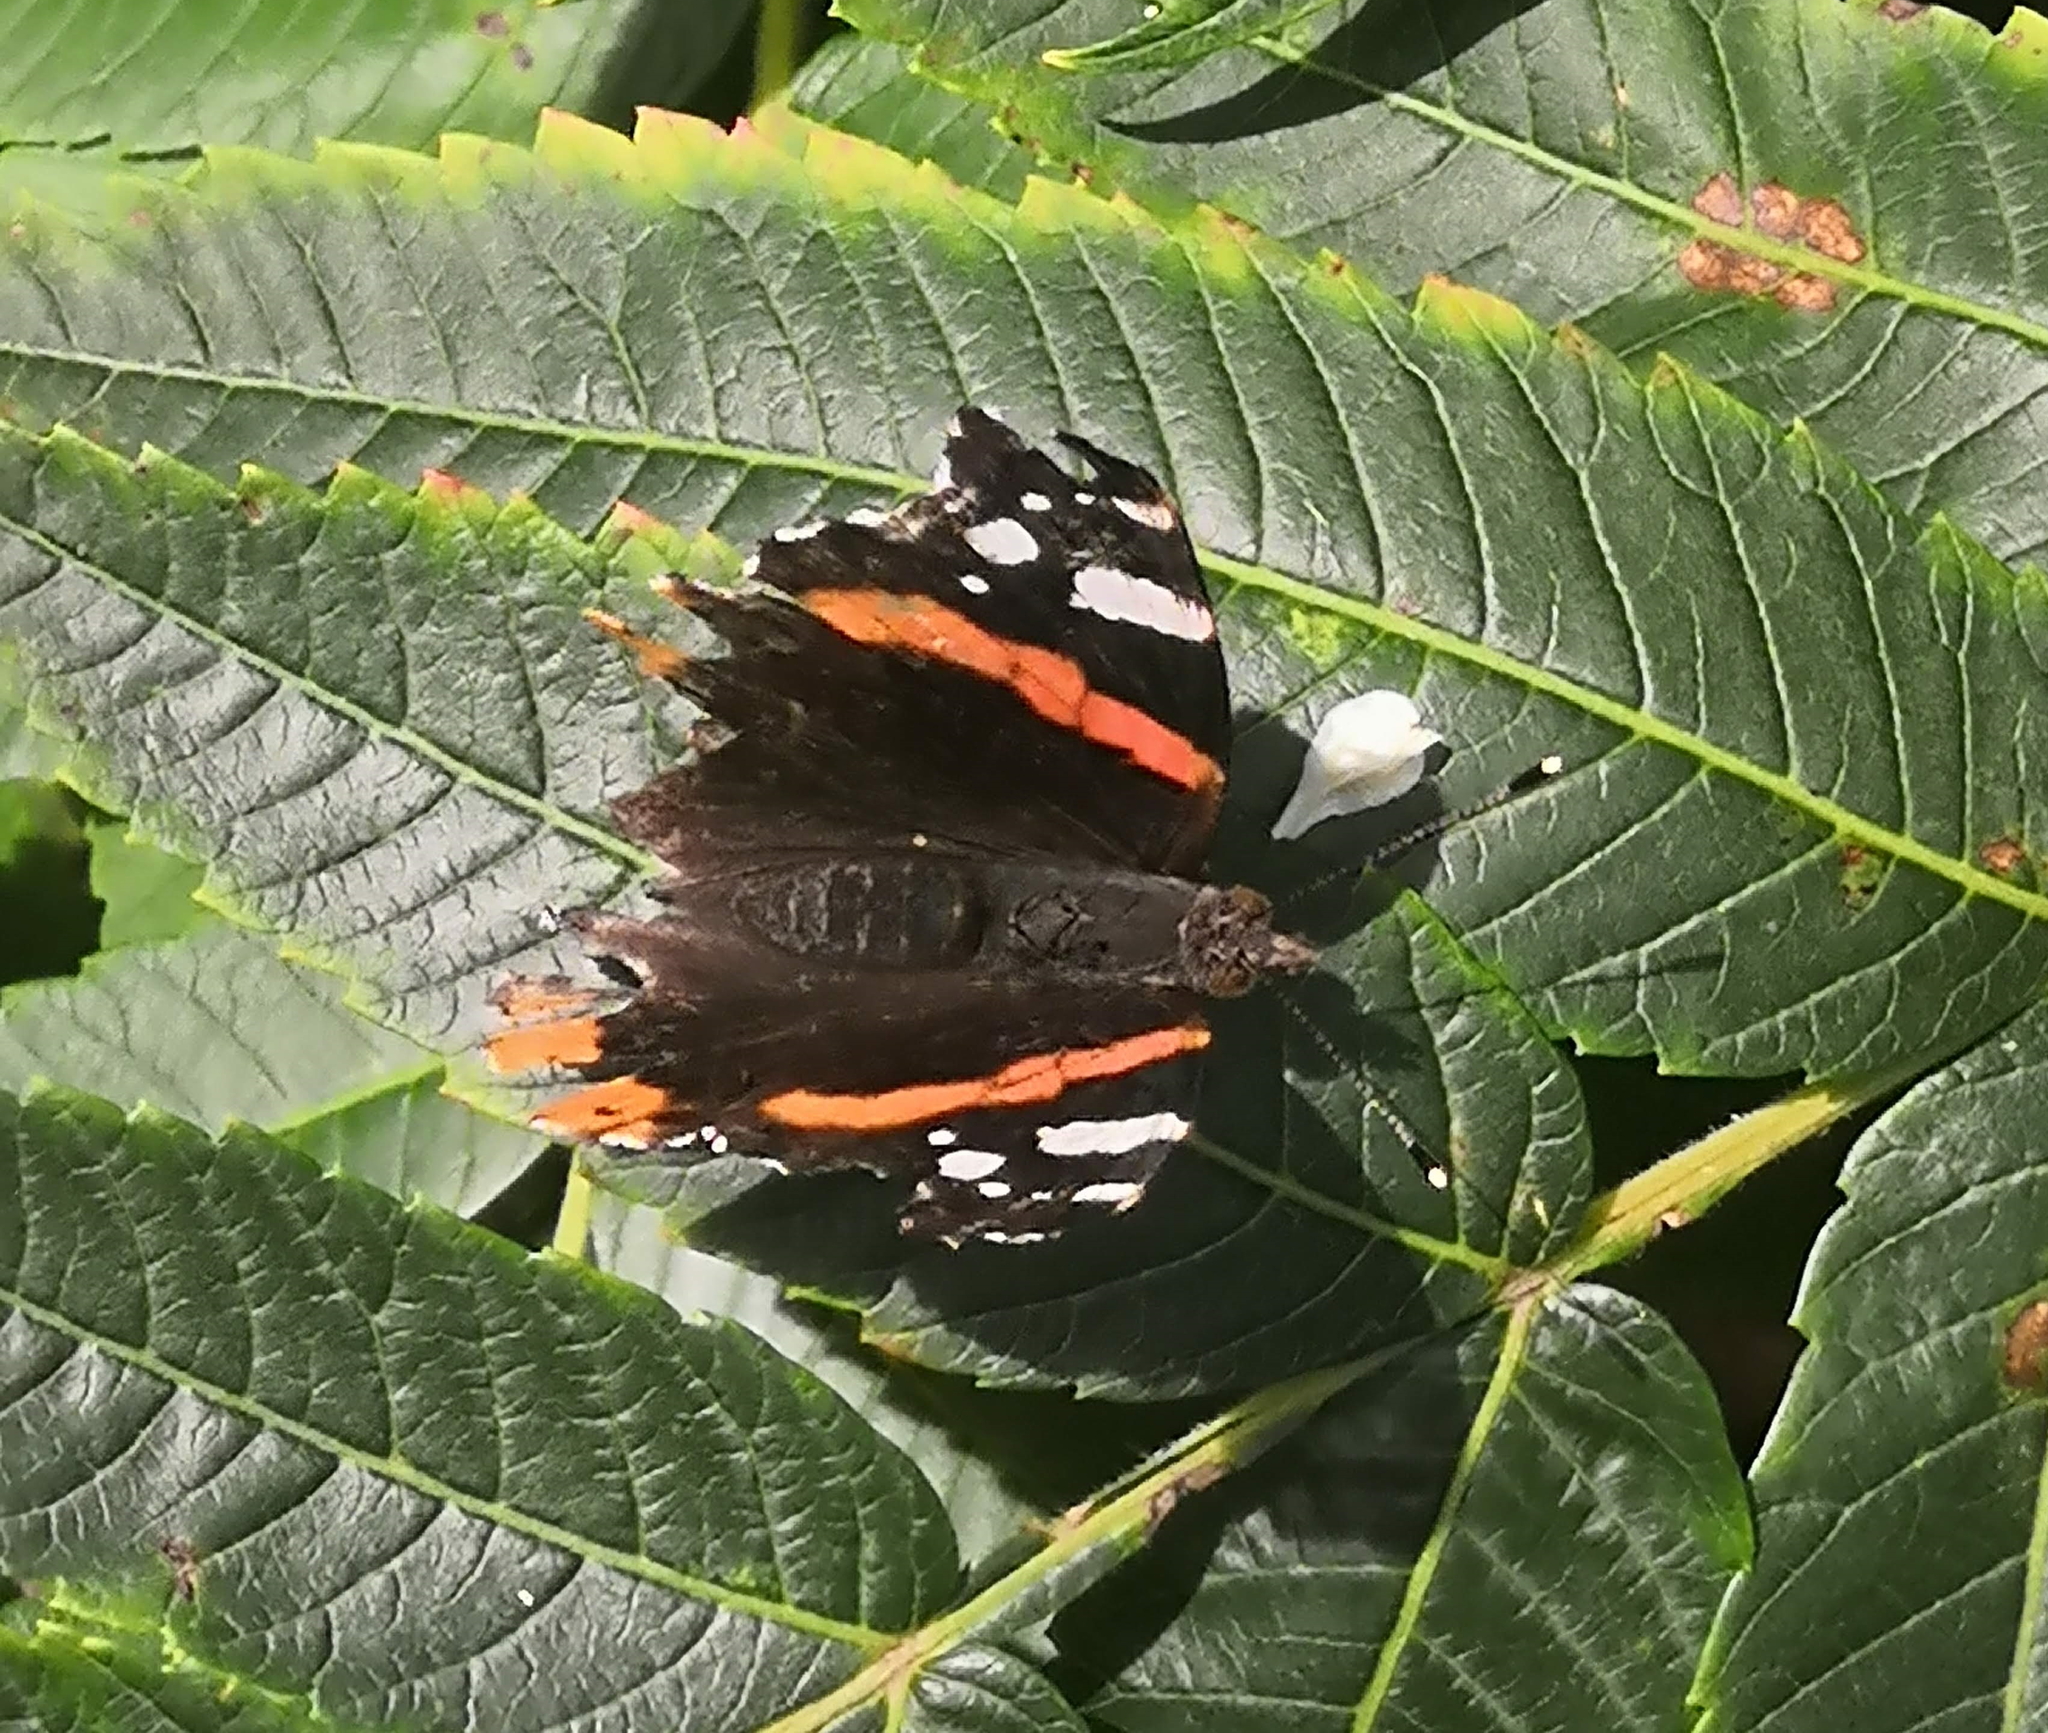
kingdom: Animalia
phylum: Arthropoda
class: Insecta
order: Lepidoptera
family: Nymphalidae
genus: Vanessa
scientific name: Vanessa atalanta
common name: Red admiral
